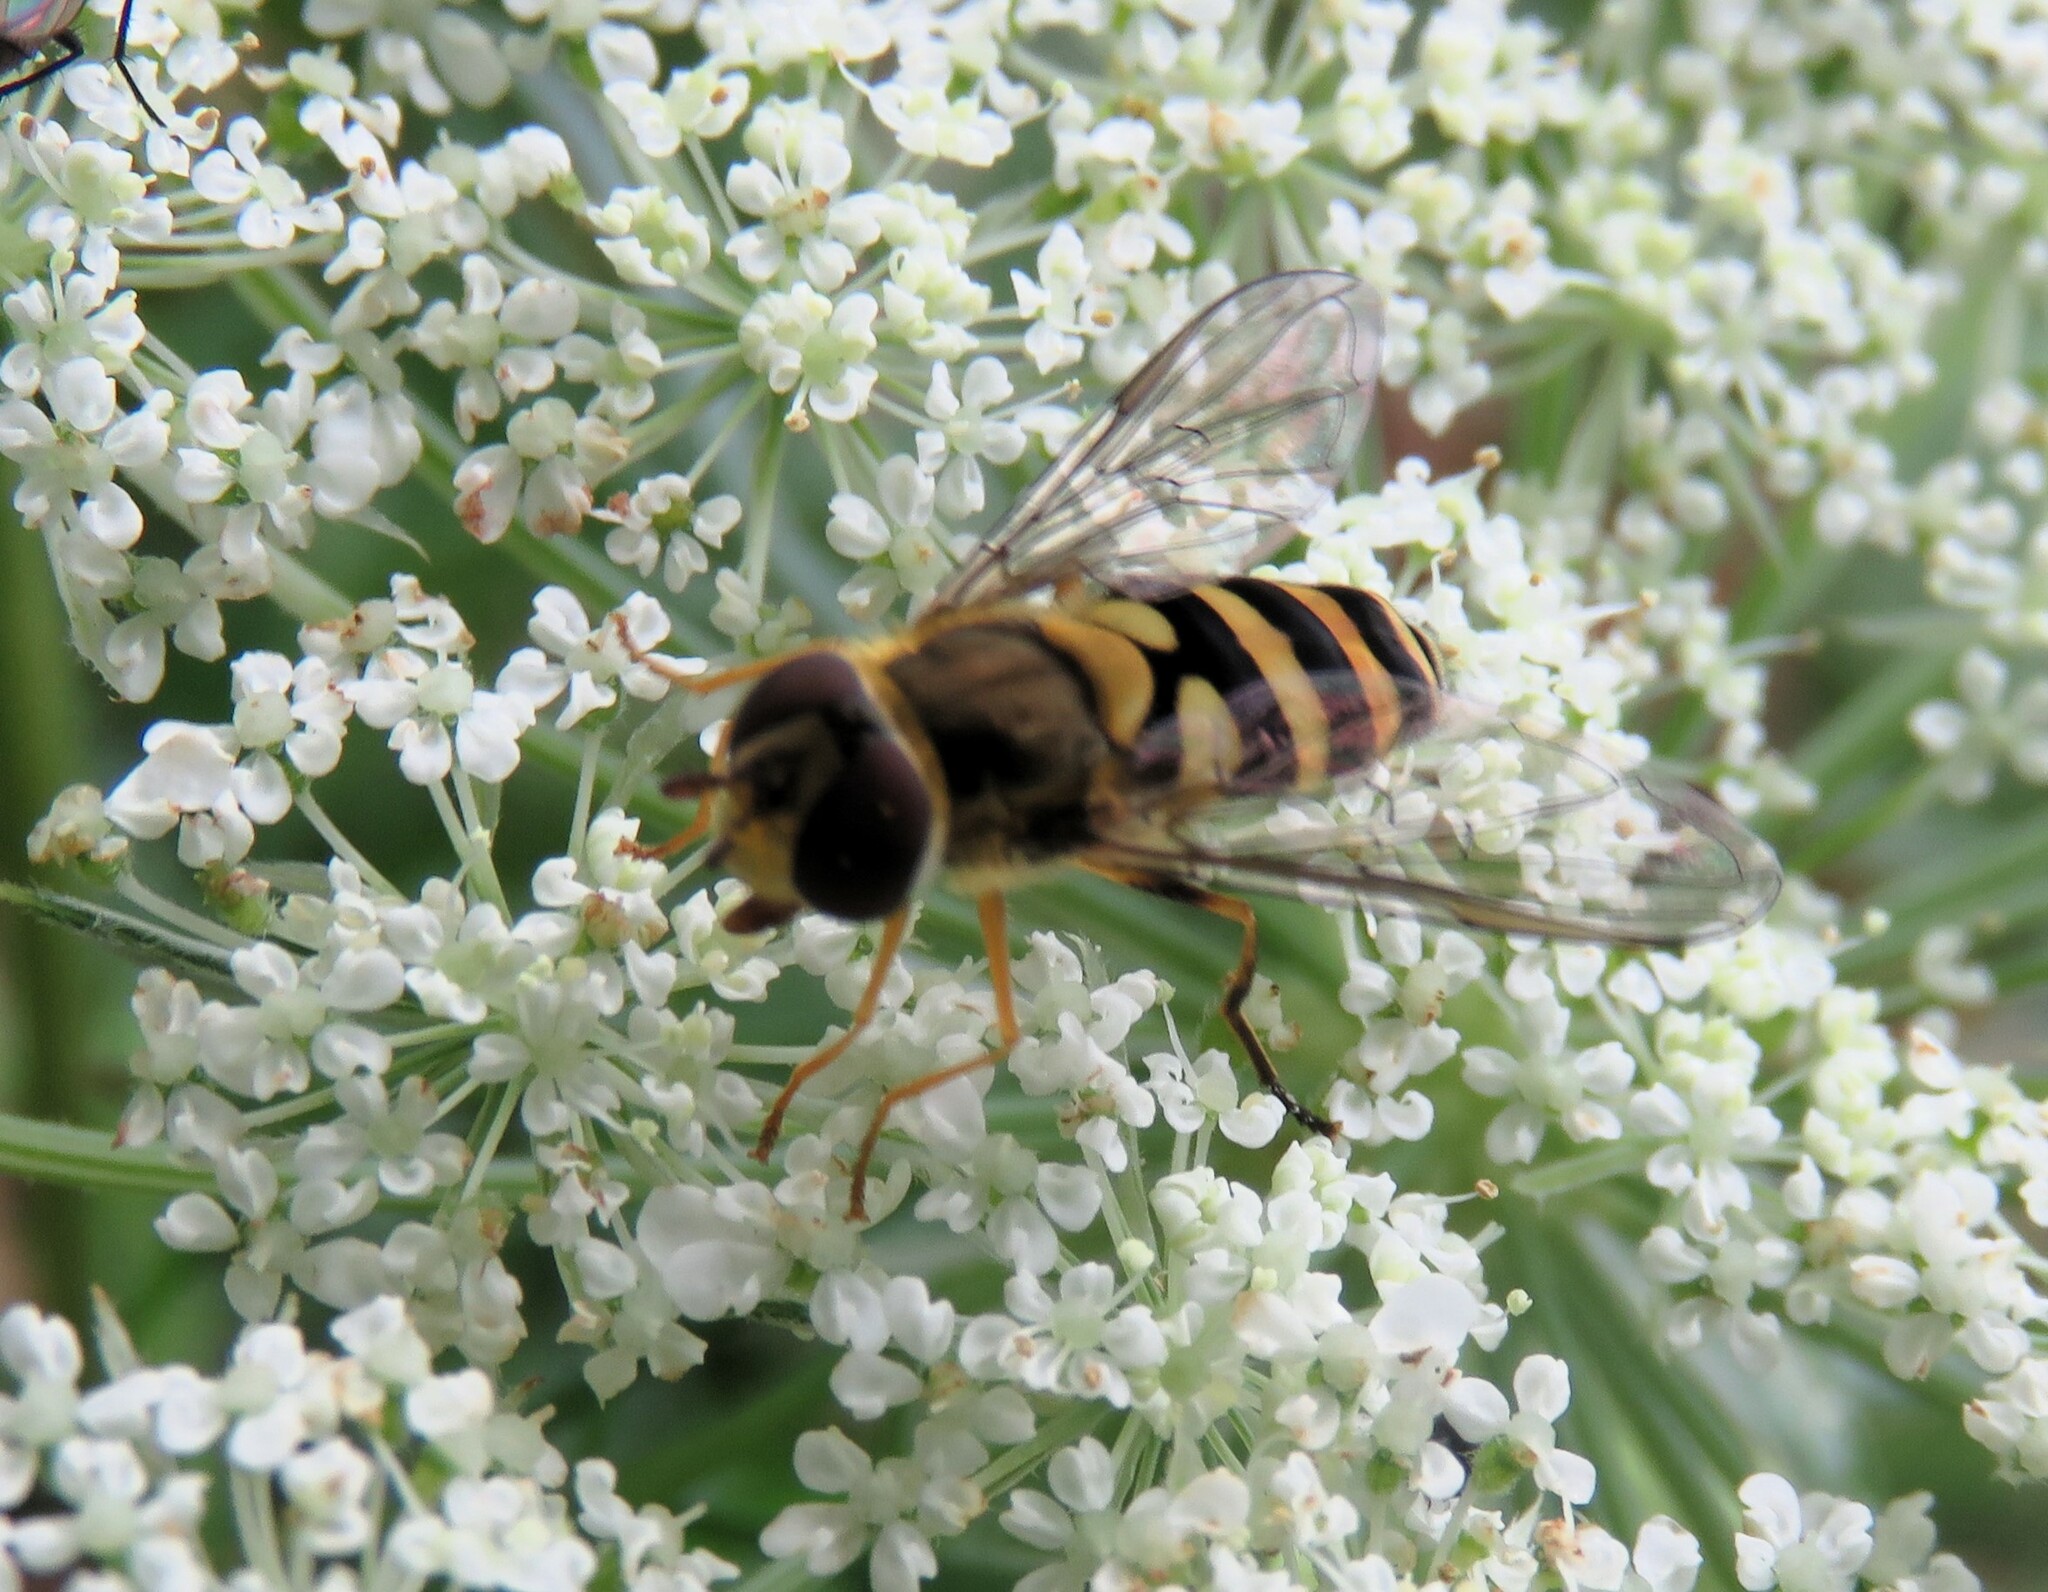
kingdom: Animalia
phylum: Arthropoda
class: Insecta
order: Diptera
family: Syrphidae
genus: Syrphus
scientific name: Syrphus rectus
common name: Yellow-legged flower fly
